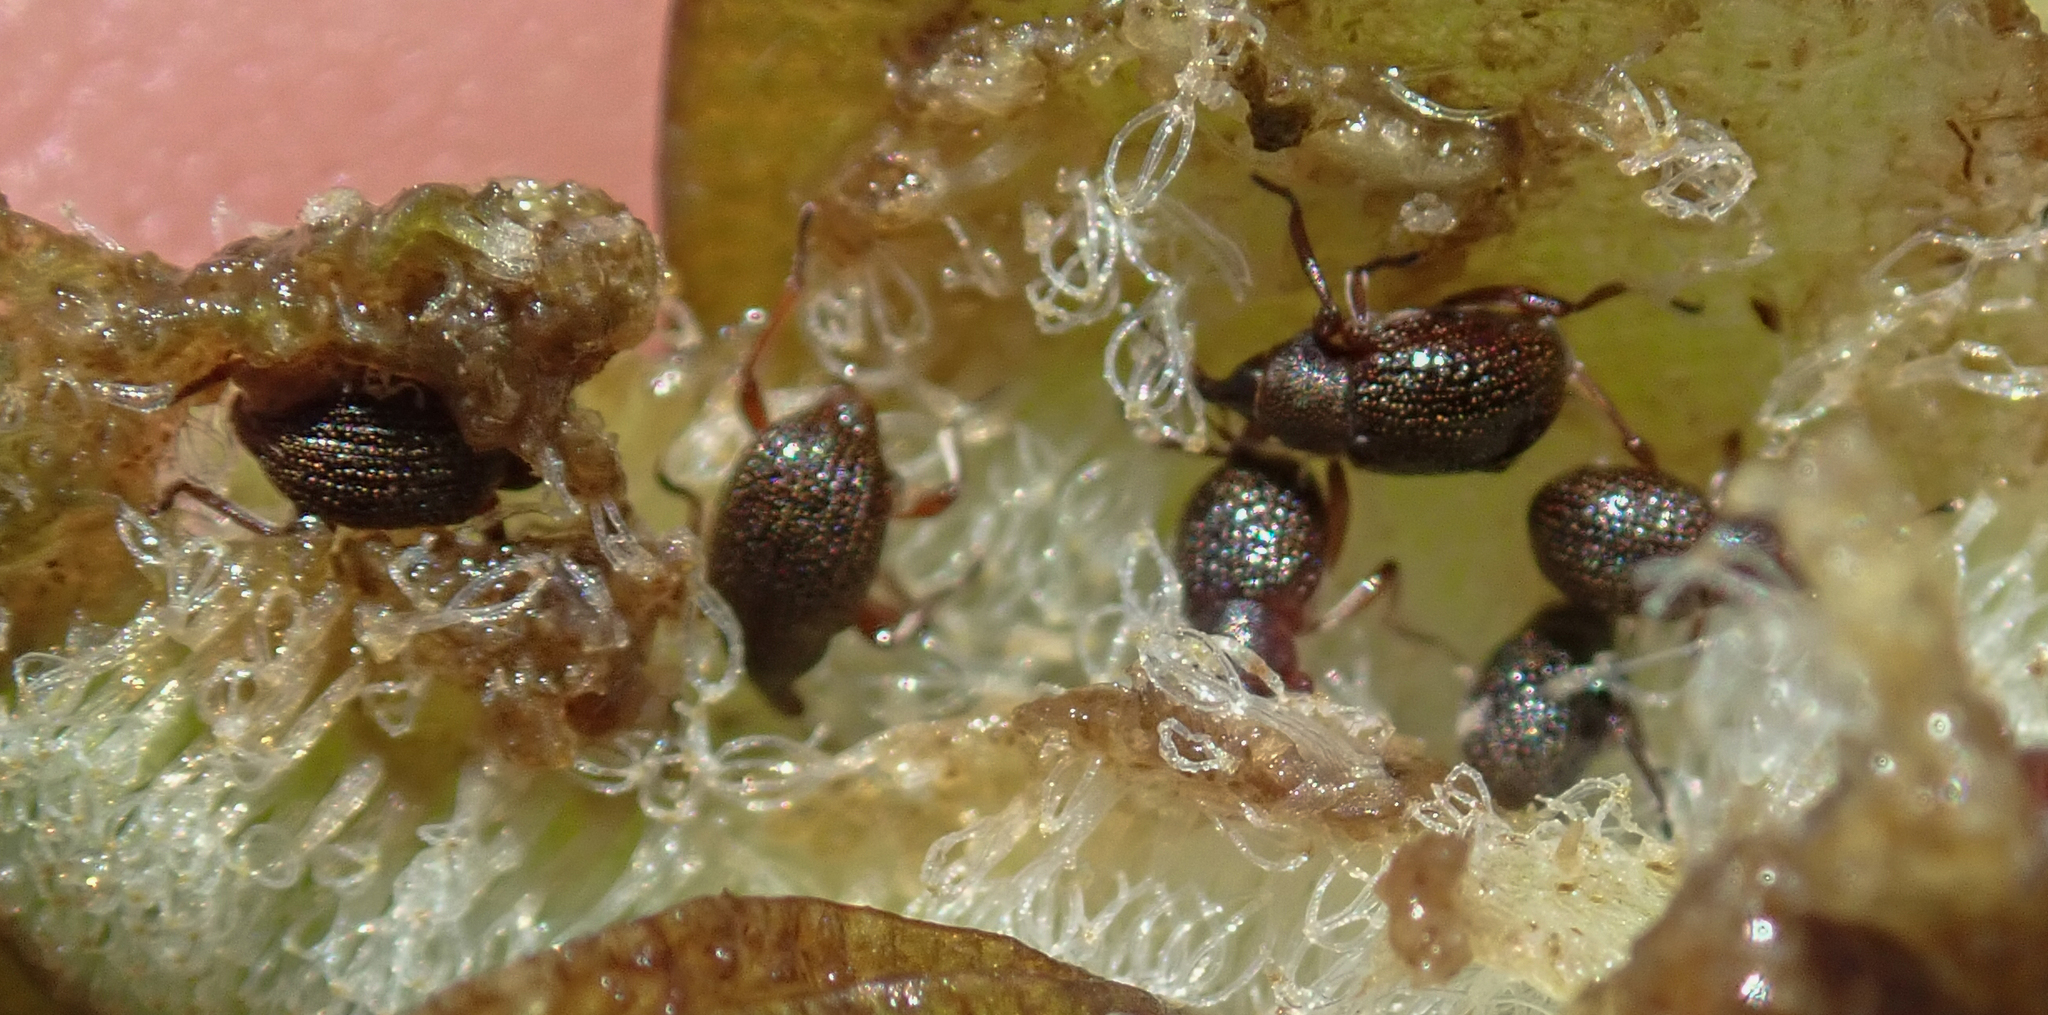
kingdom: Animalia
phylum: Arthropoda
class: Insecta
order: Coleoptera
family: Brachyceridae
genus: Cyrtobagous
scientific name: Cyrtobagous salviniae
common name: Salvinia weevil
